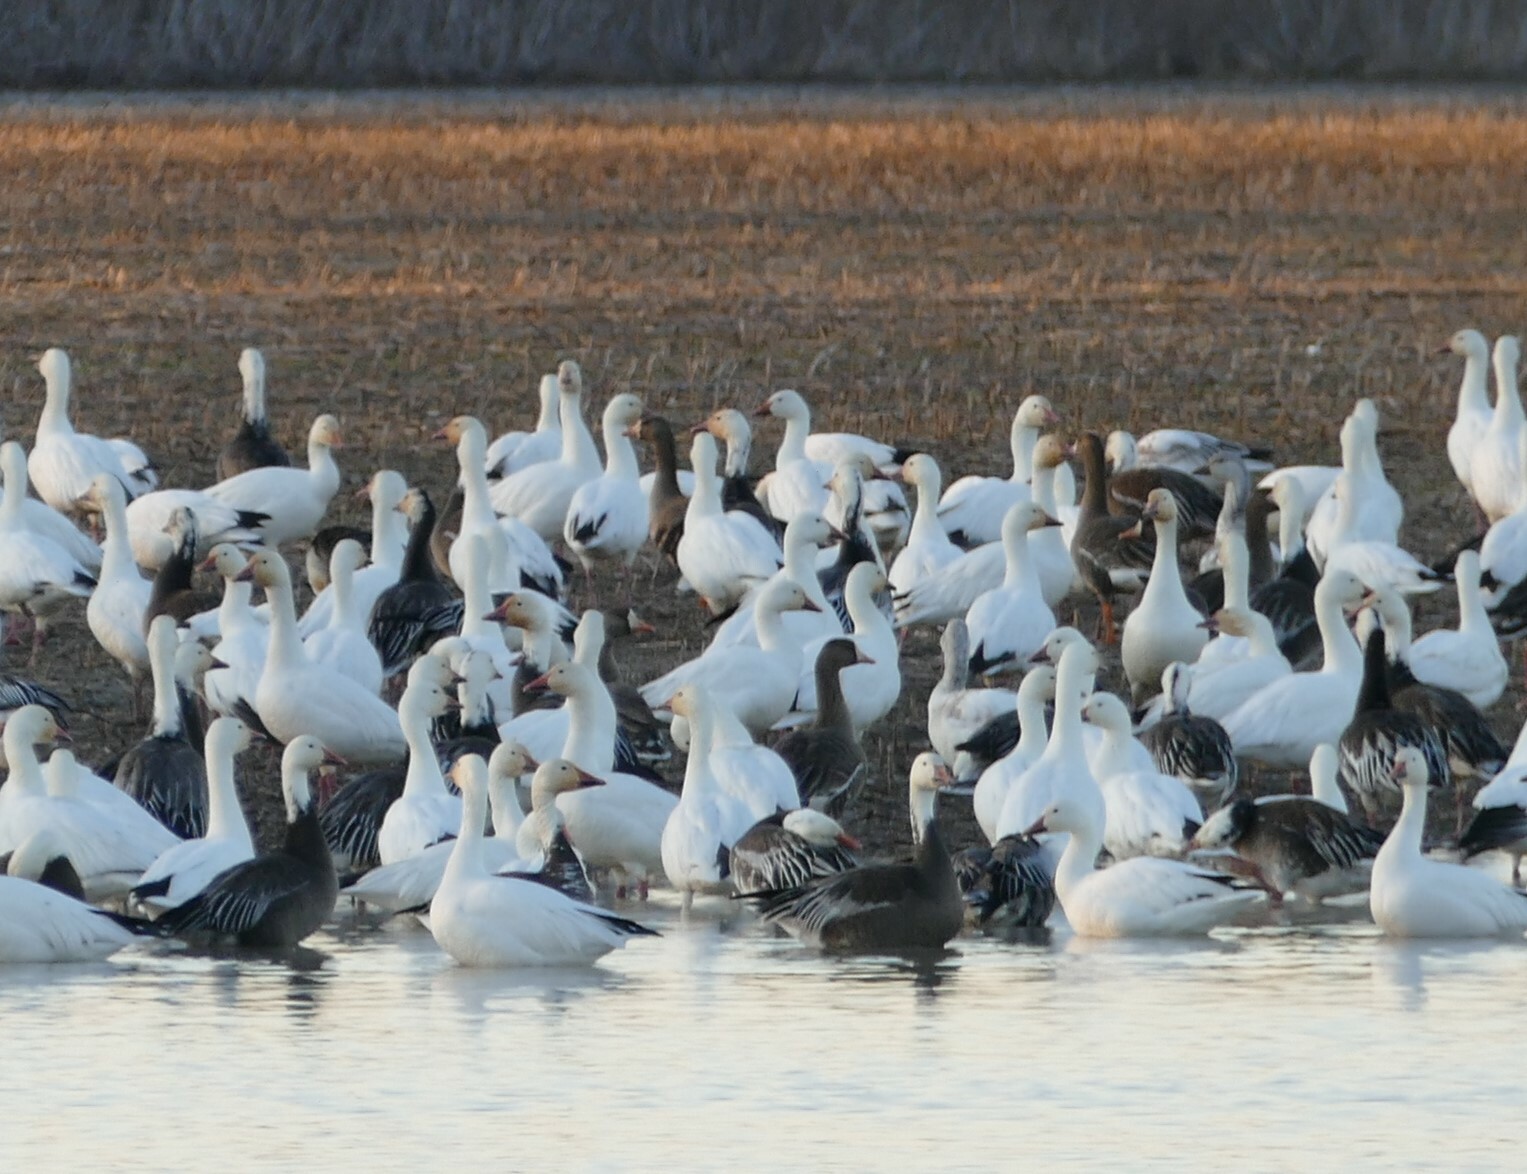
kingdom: Animalia
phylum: Chordata
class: Aves
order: Anseriformes
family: Anatidae
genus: Anser
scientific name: Anser albifrons
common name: Greater white-fronted goose
